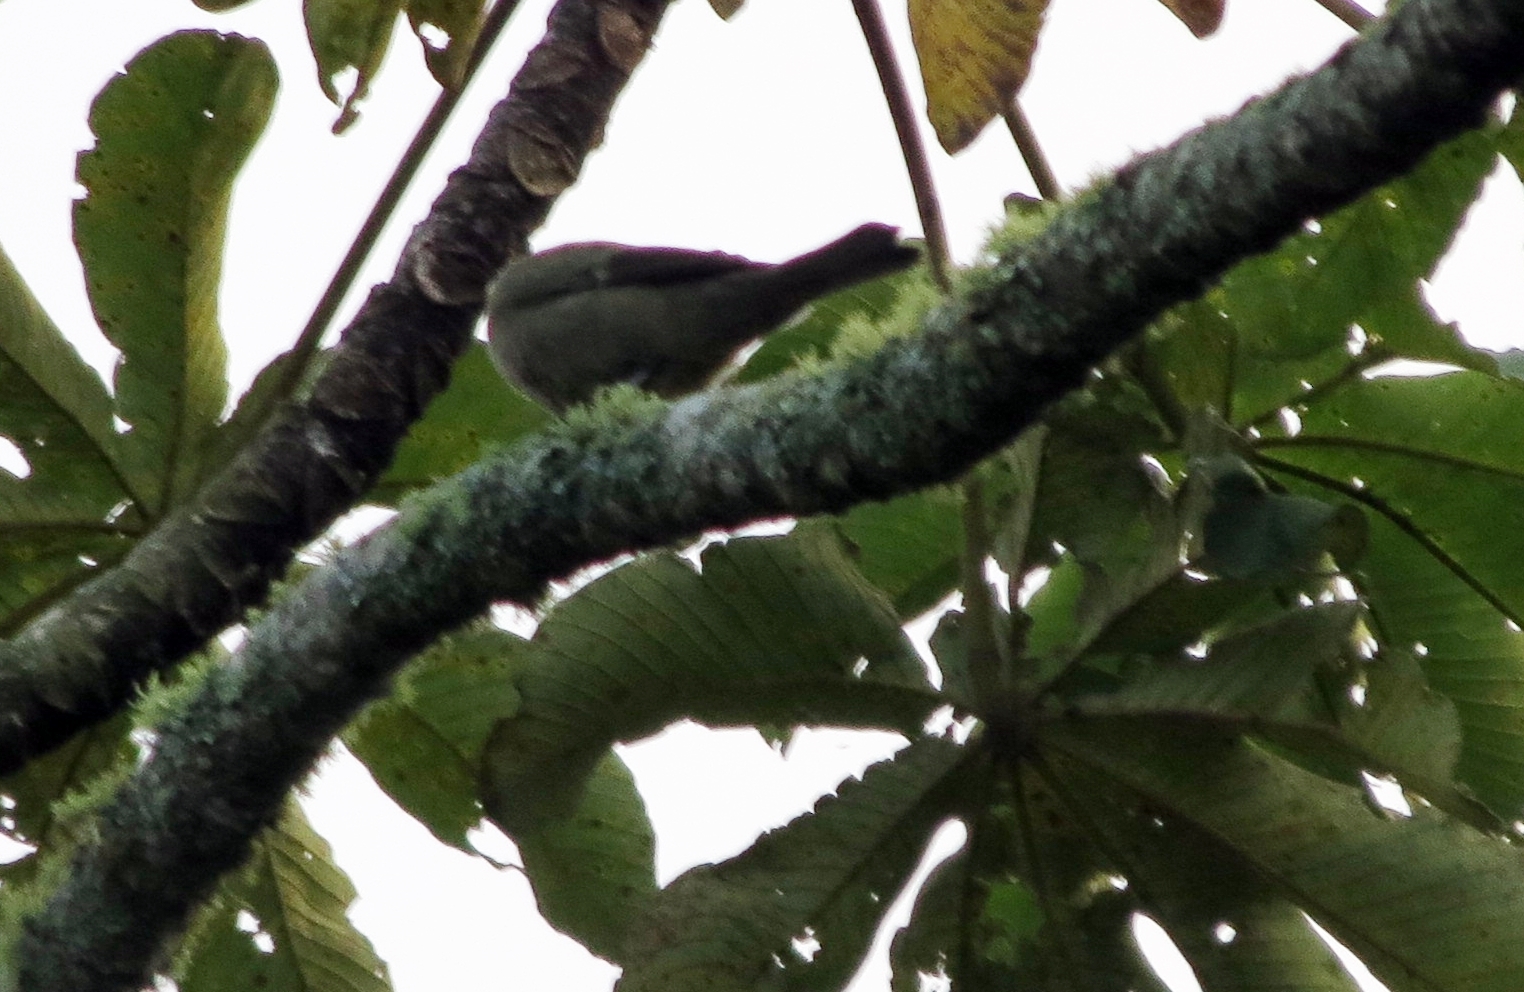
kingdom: Animalia
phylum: Chordata
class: Aves
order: Passeriformes
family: Thraupidae
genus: Thraupis
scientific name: Thraupis palmarum
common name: Palm tanager
